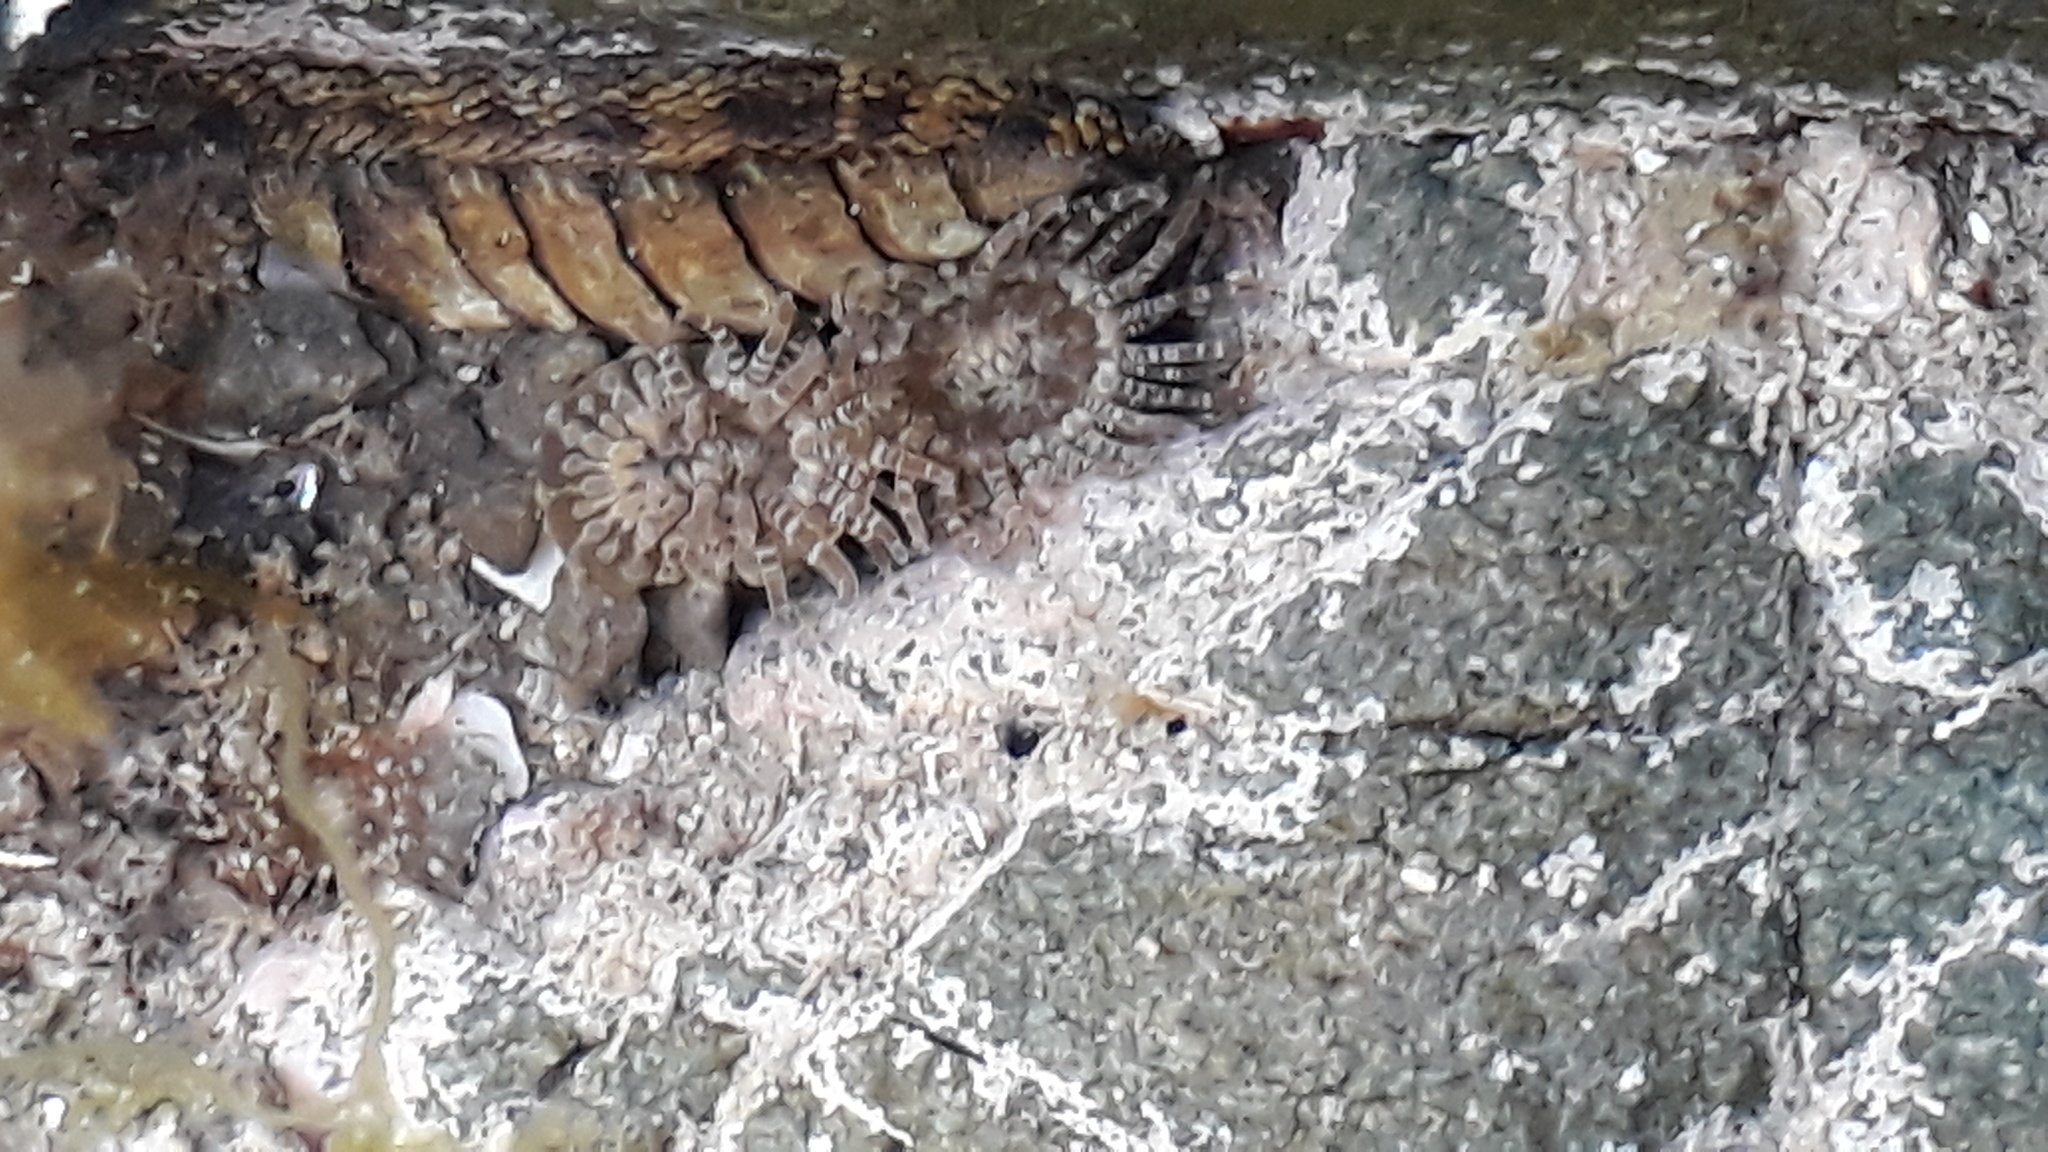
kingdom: Animalia
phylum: Cnidaria
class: Anthozoa
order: Actiniaria
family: Actiniidae
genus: Anthopleura
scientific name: Anthopleura hermaphroditica
